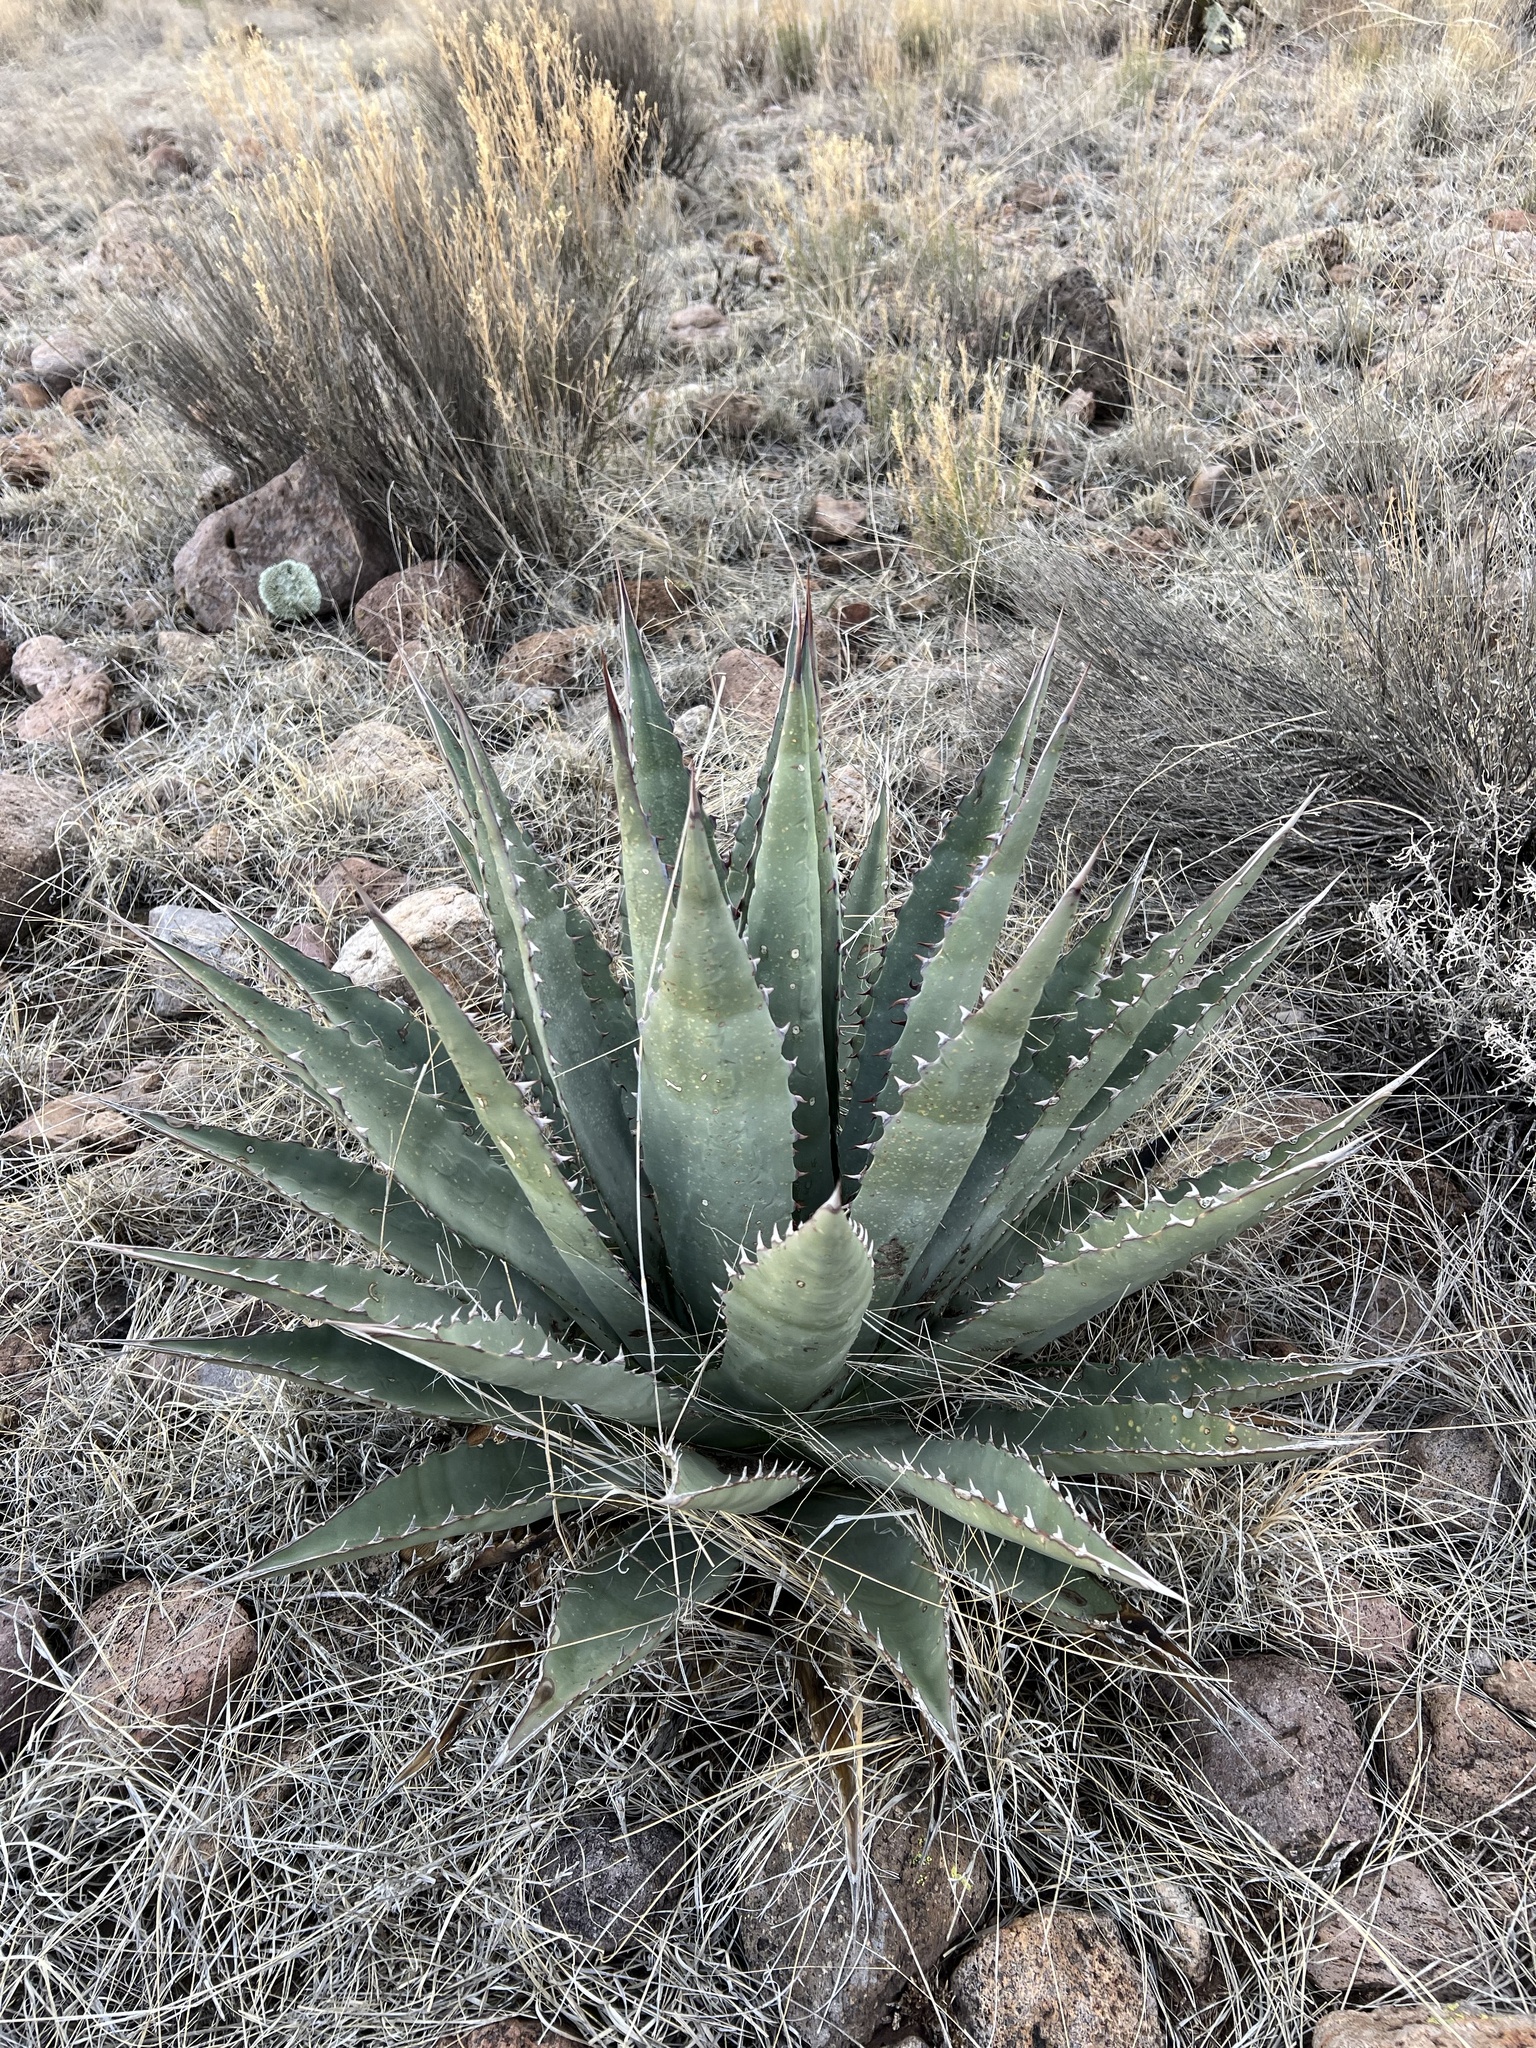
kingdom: Plantae
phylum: Tracheophyta
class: Liliopsida
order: Asparagales
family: Asparagaceae
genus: Agave
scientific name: Agave palmeri
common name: Palmer agave
